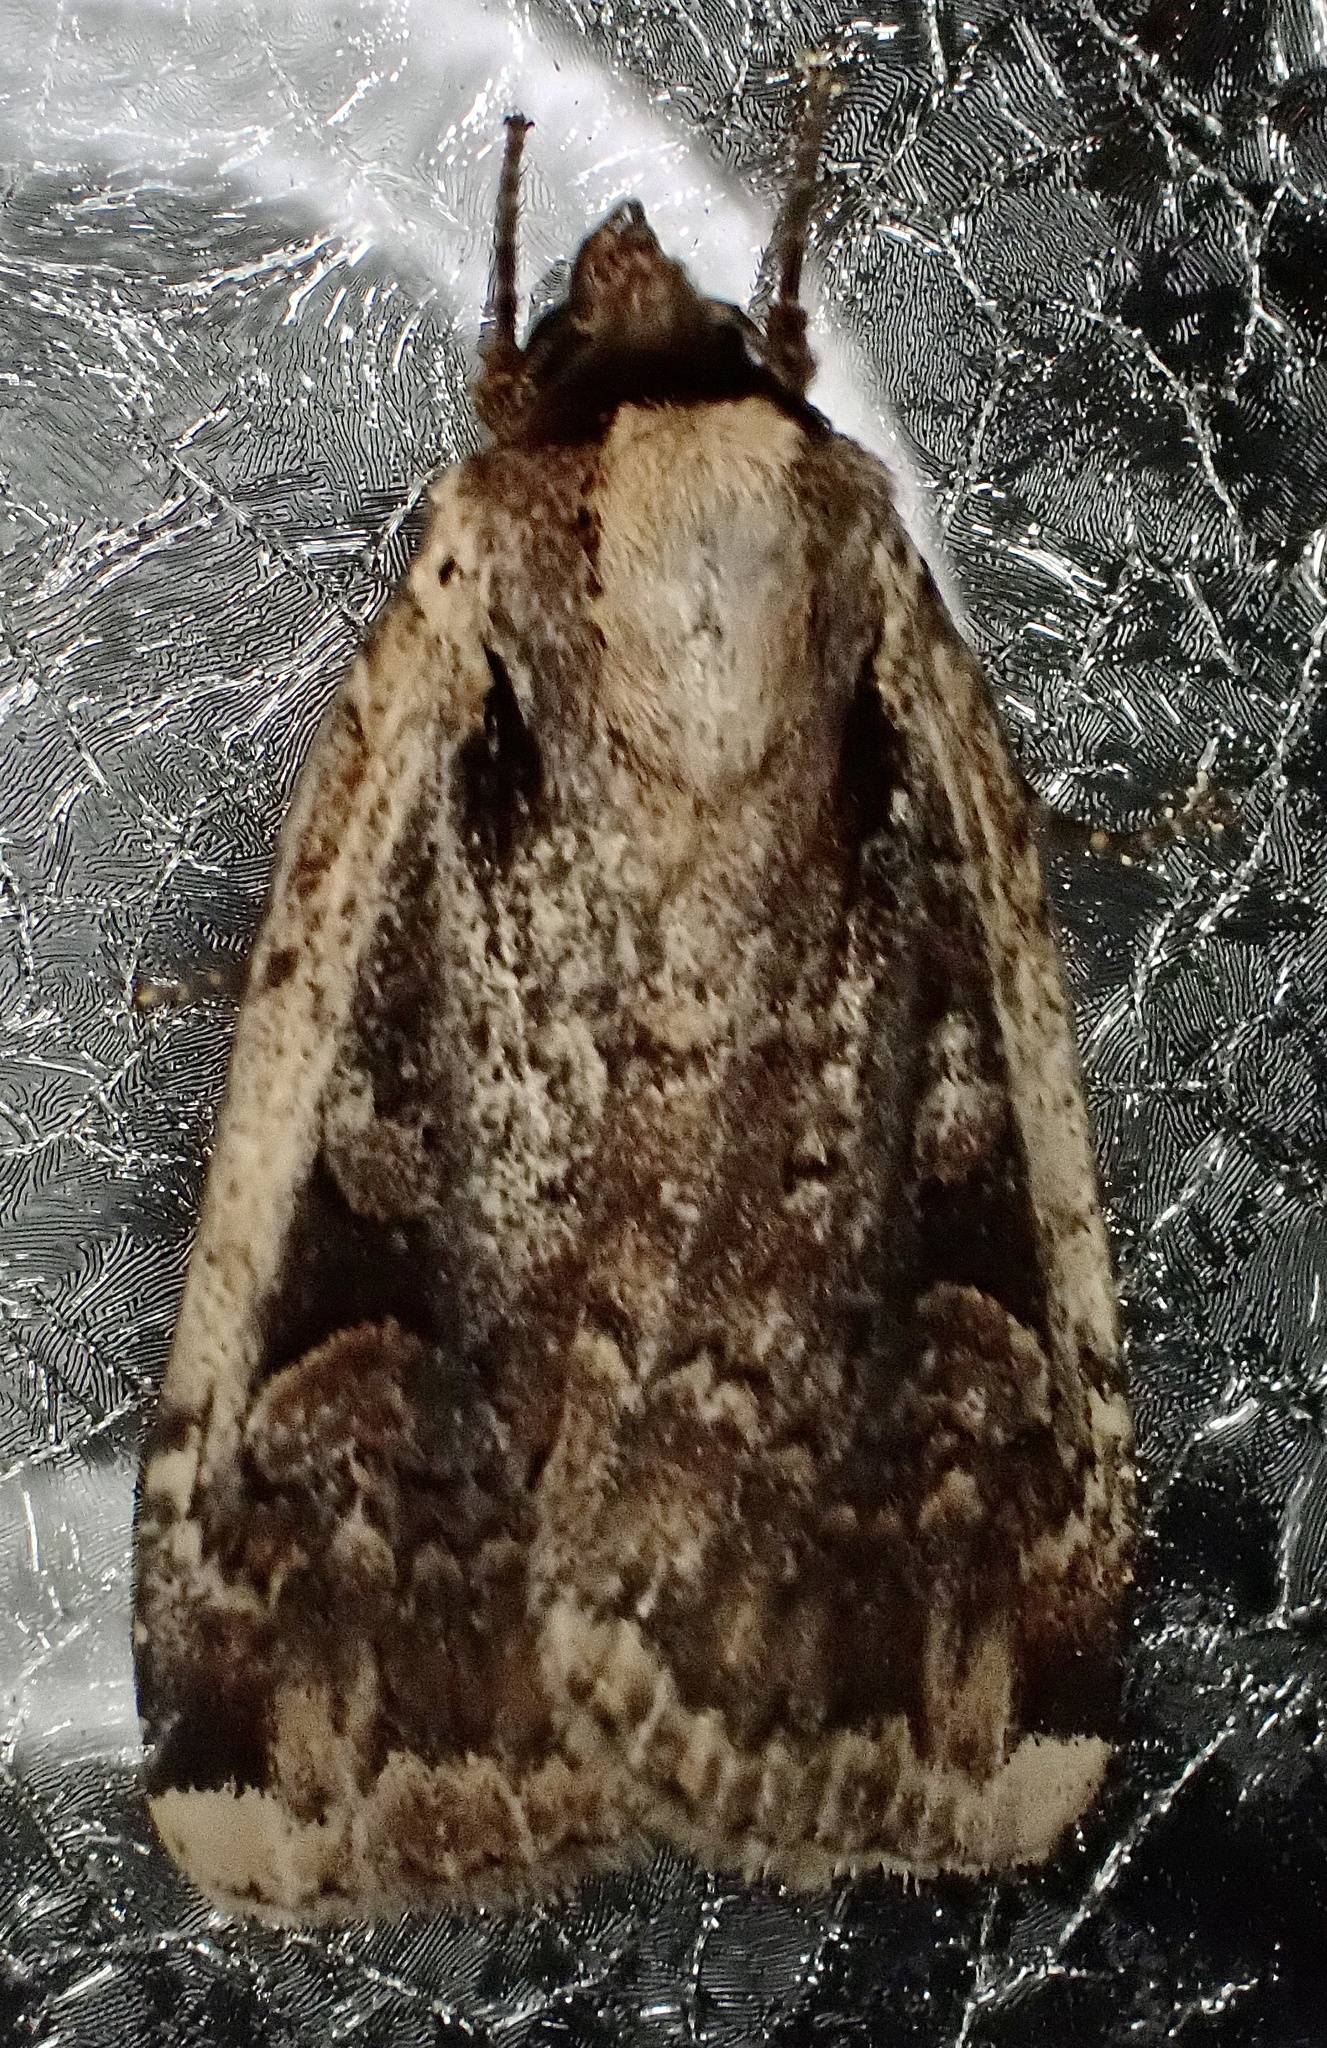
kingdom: Animalia
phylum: Arthropoda
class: Insecta
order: Lepidoptera
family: Noctuidae
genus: Eueretagrotis
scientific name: Eueretagrotis sigmoides
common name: Sigmoid dart
